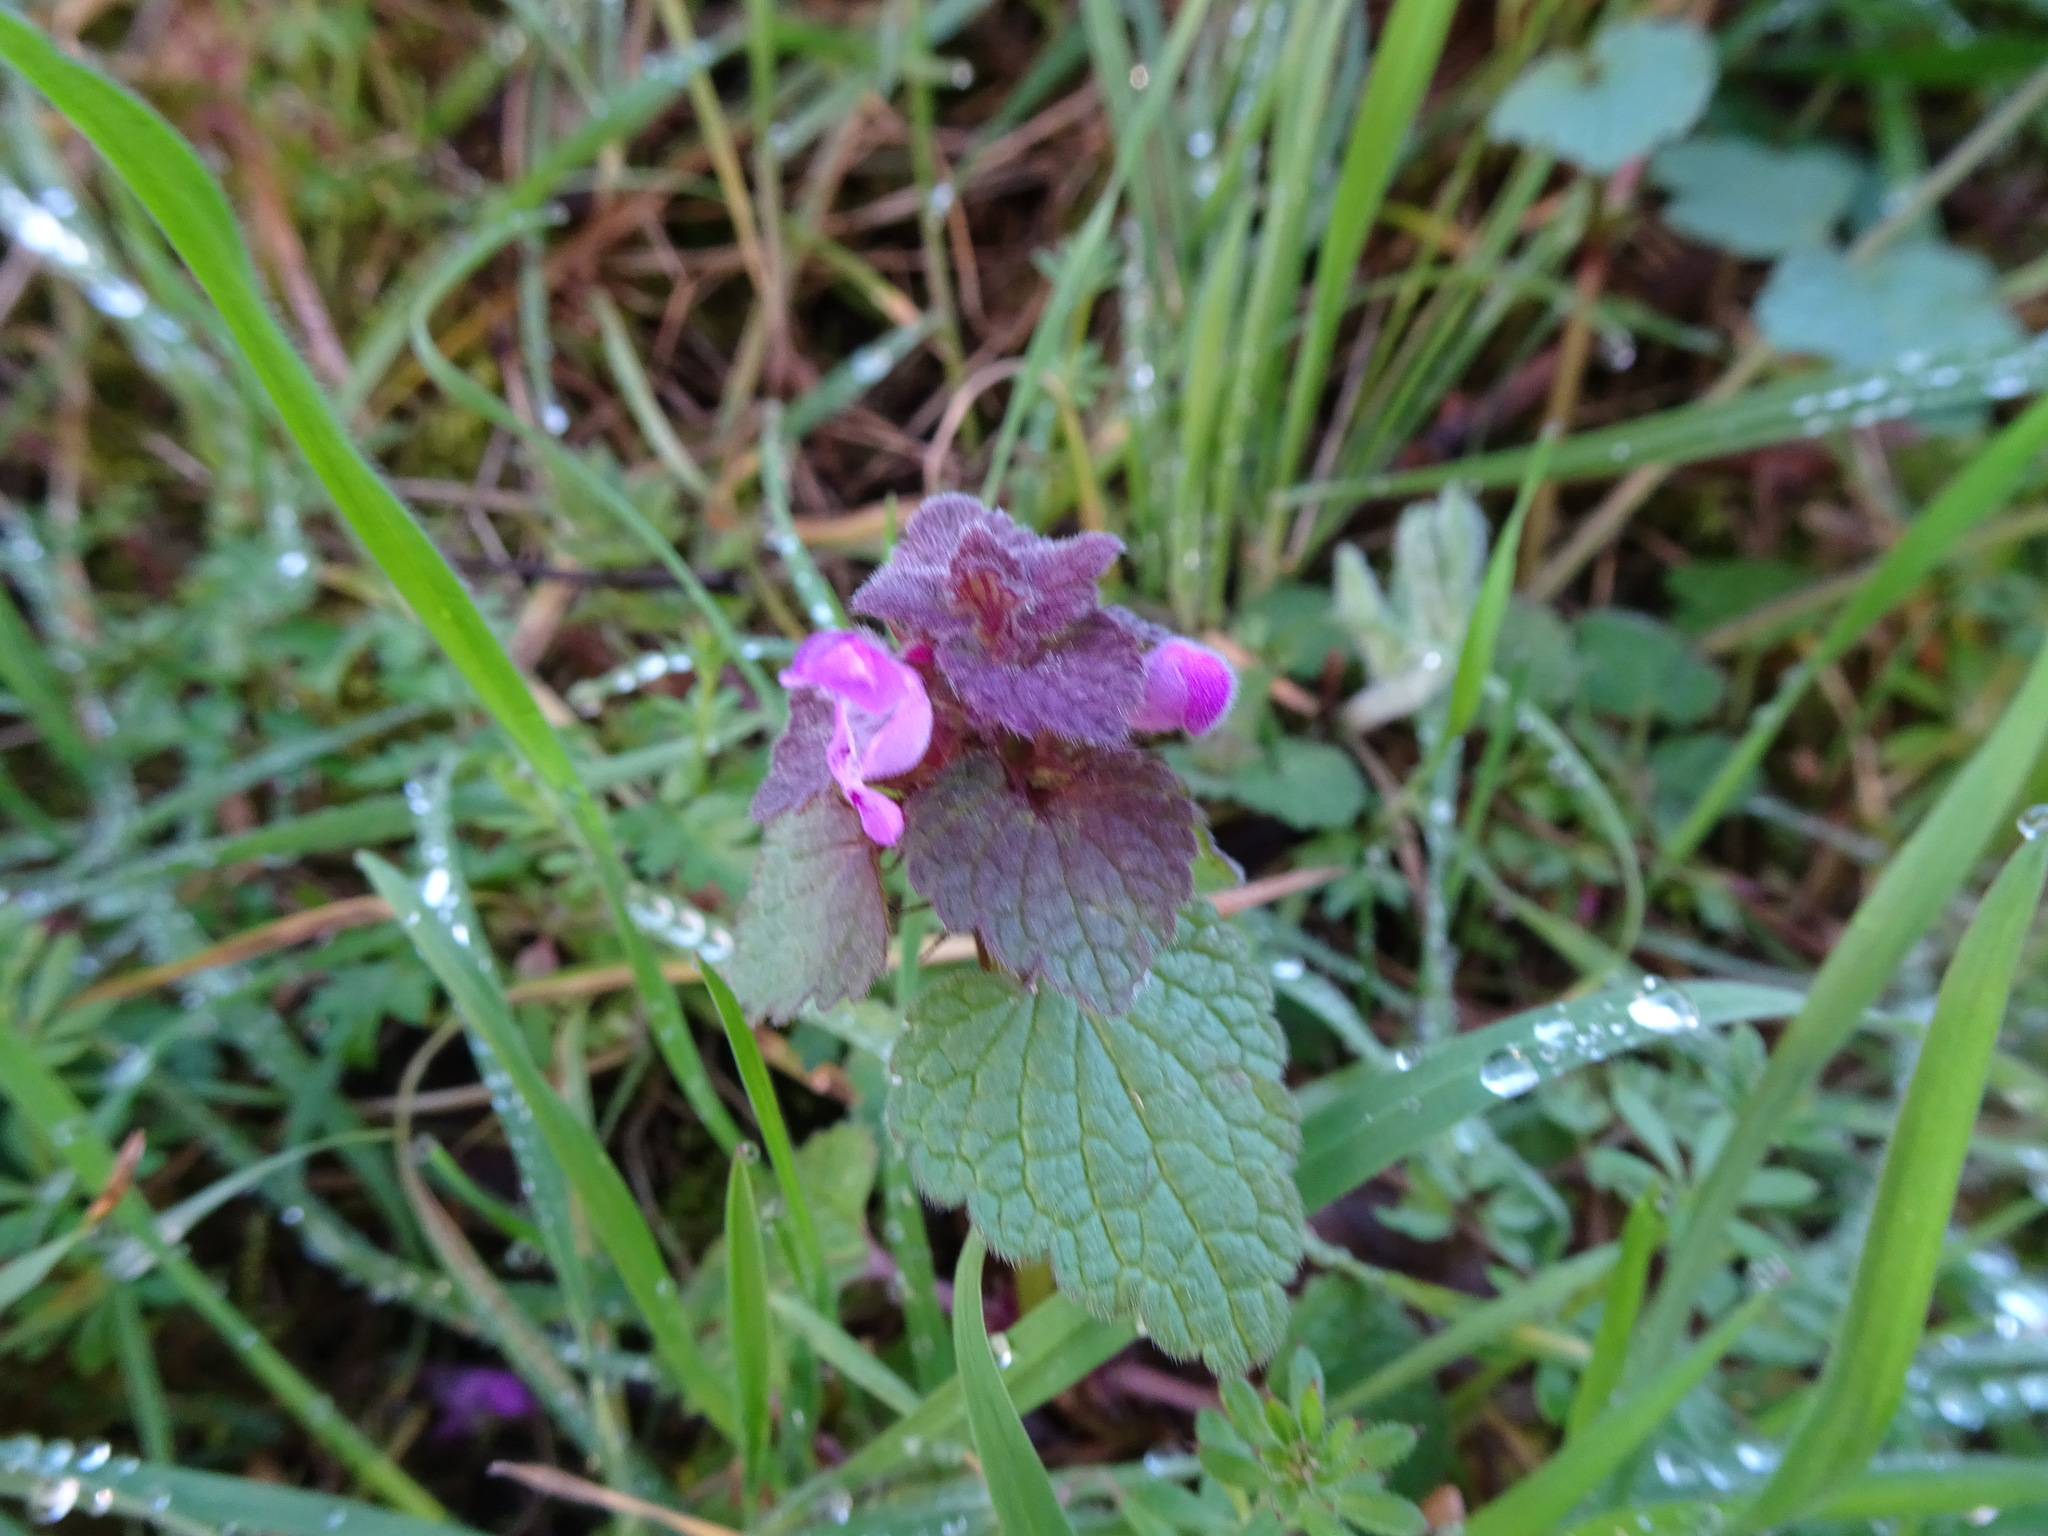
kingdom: Plantae
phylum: Tracheophyta
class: Magnoliopsida
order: Lamiales
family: Lamiaceae
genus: Lamium
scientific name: Lamium purpureum
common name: Red dead-nettle
